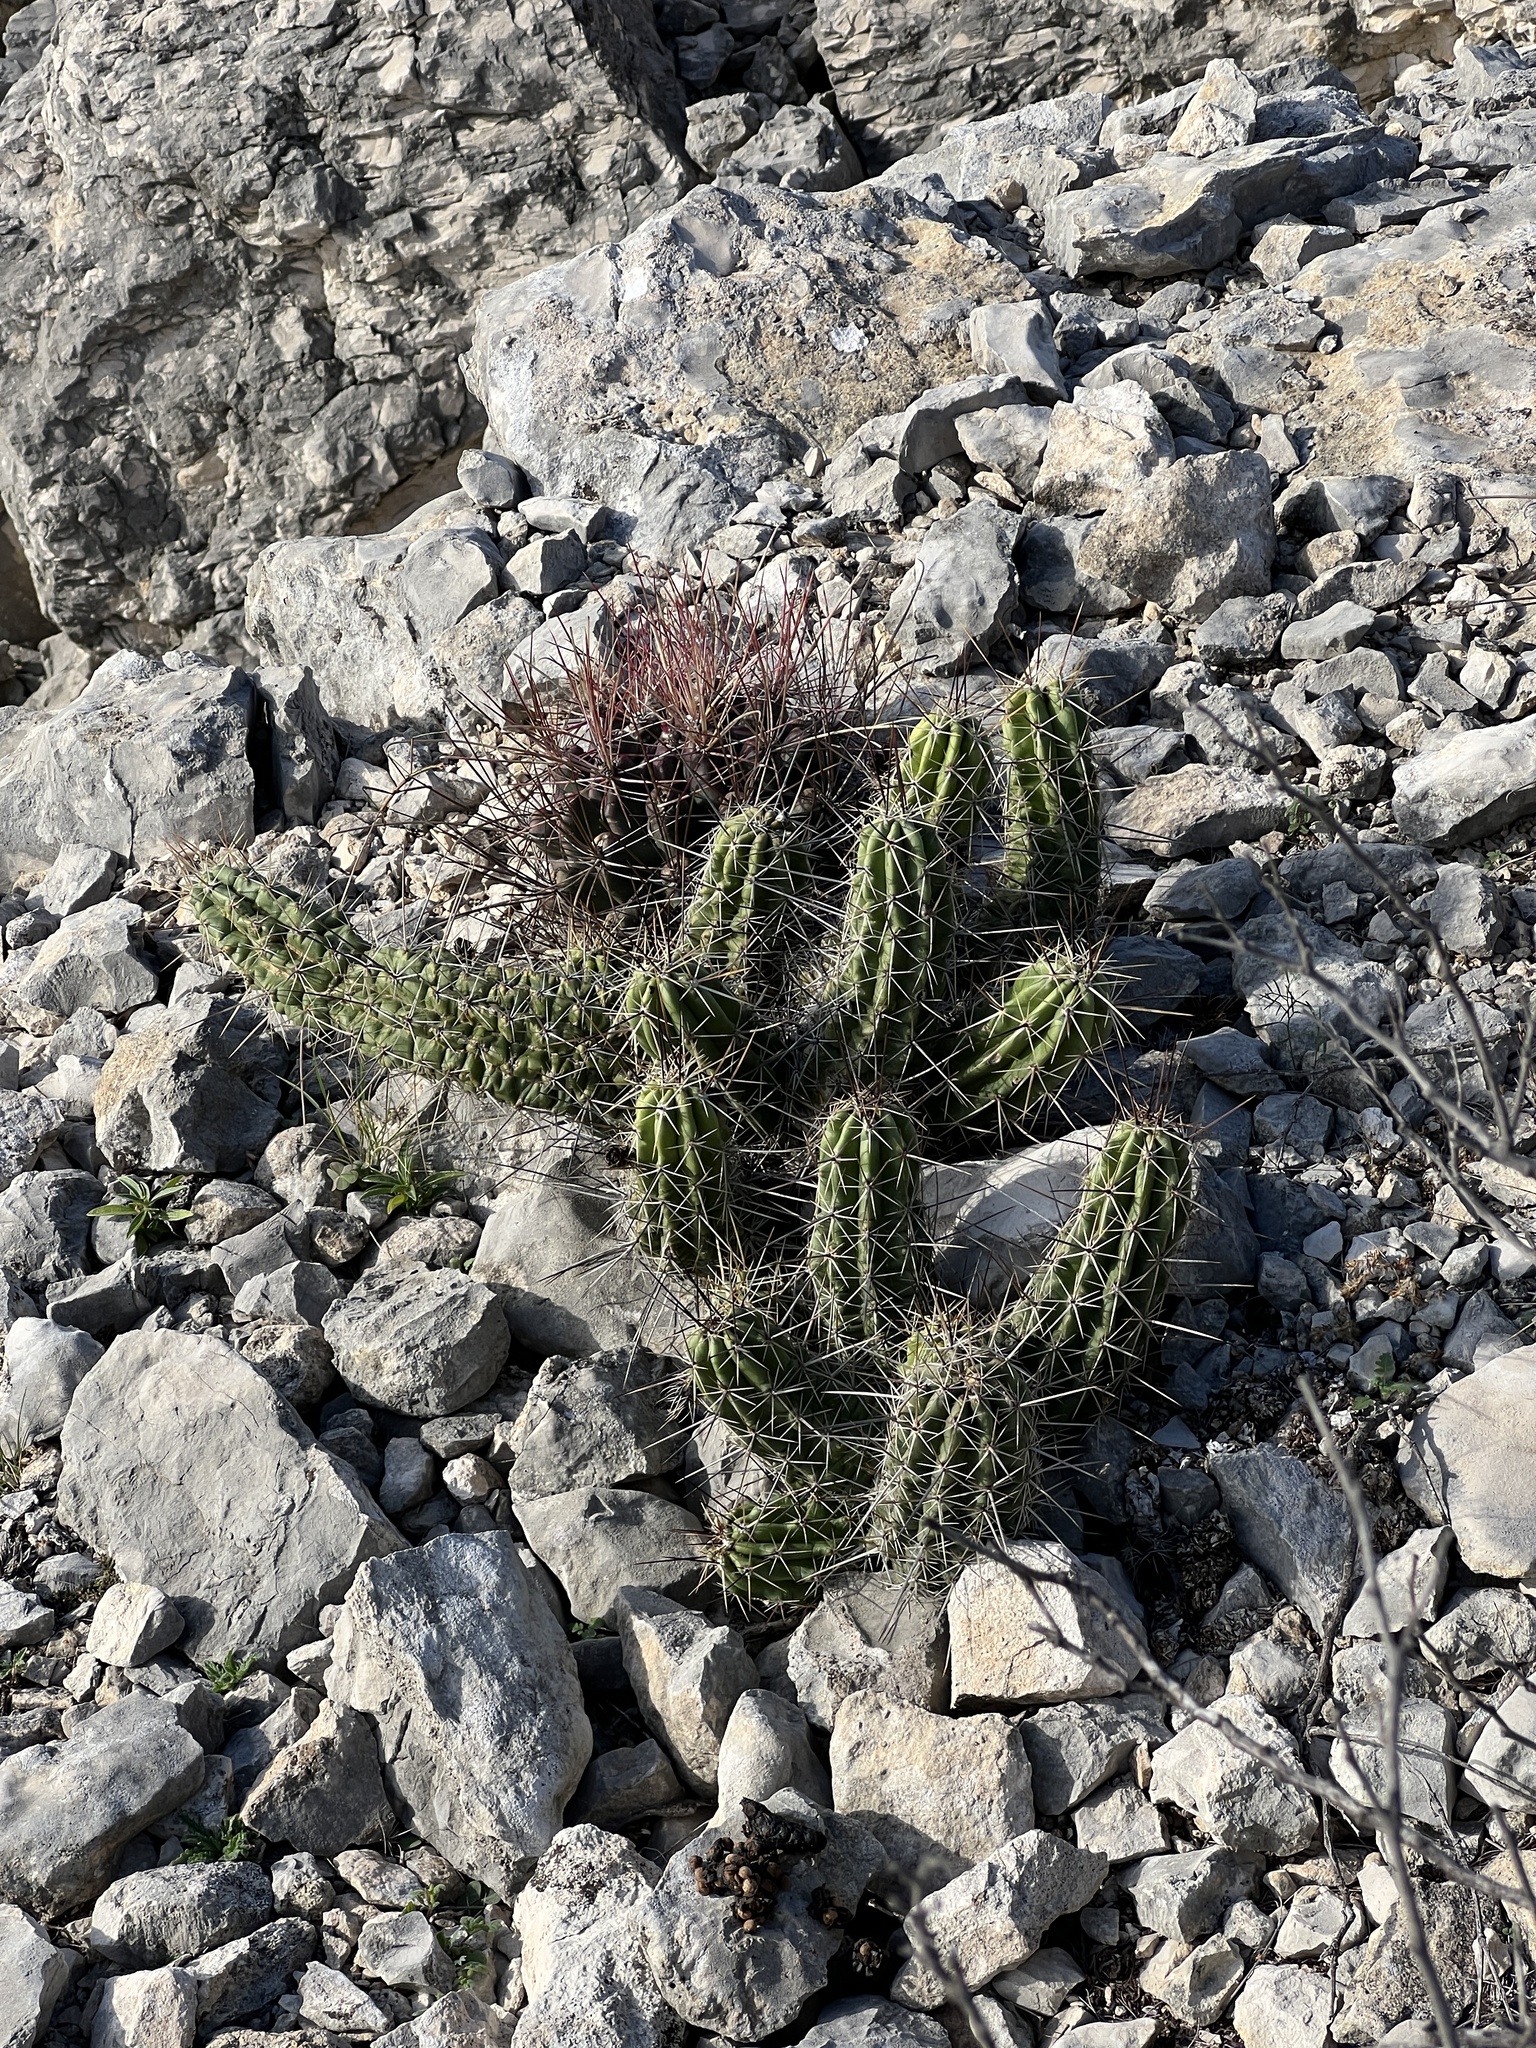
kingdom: Plantae
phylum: Tracheophyta
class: Magnoliopsida
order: Caryophyllales
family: Cactaceae
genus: Echinocereus
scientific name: Echinocereus enneacanthus
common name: Pitaya
